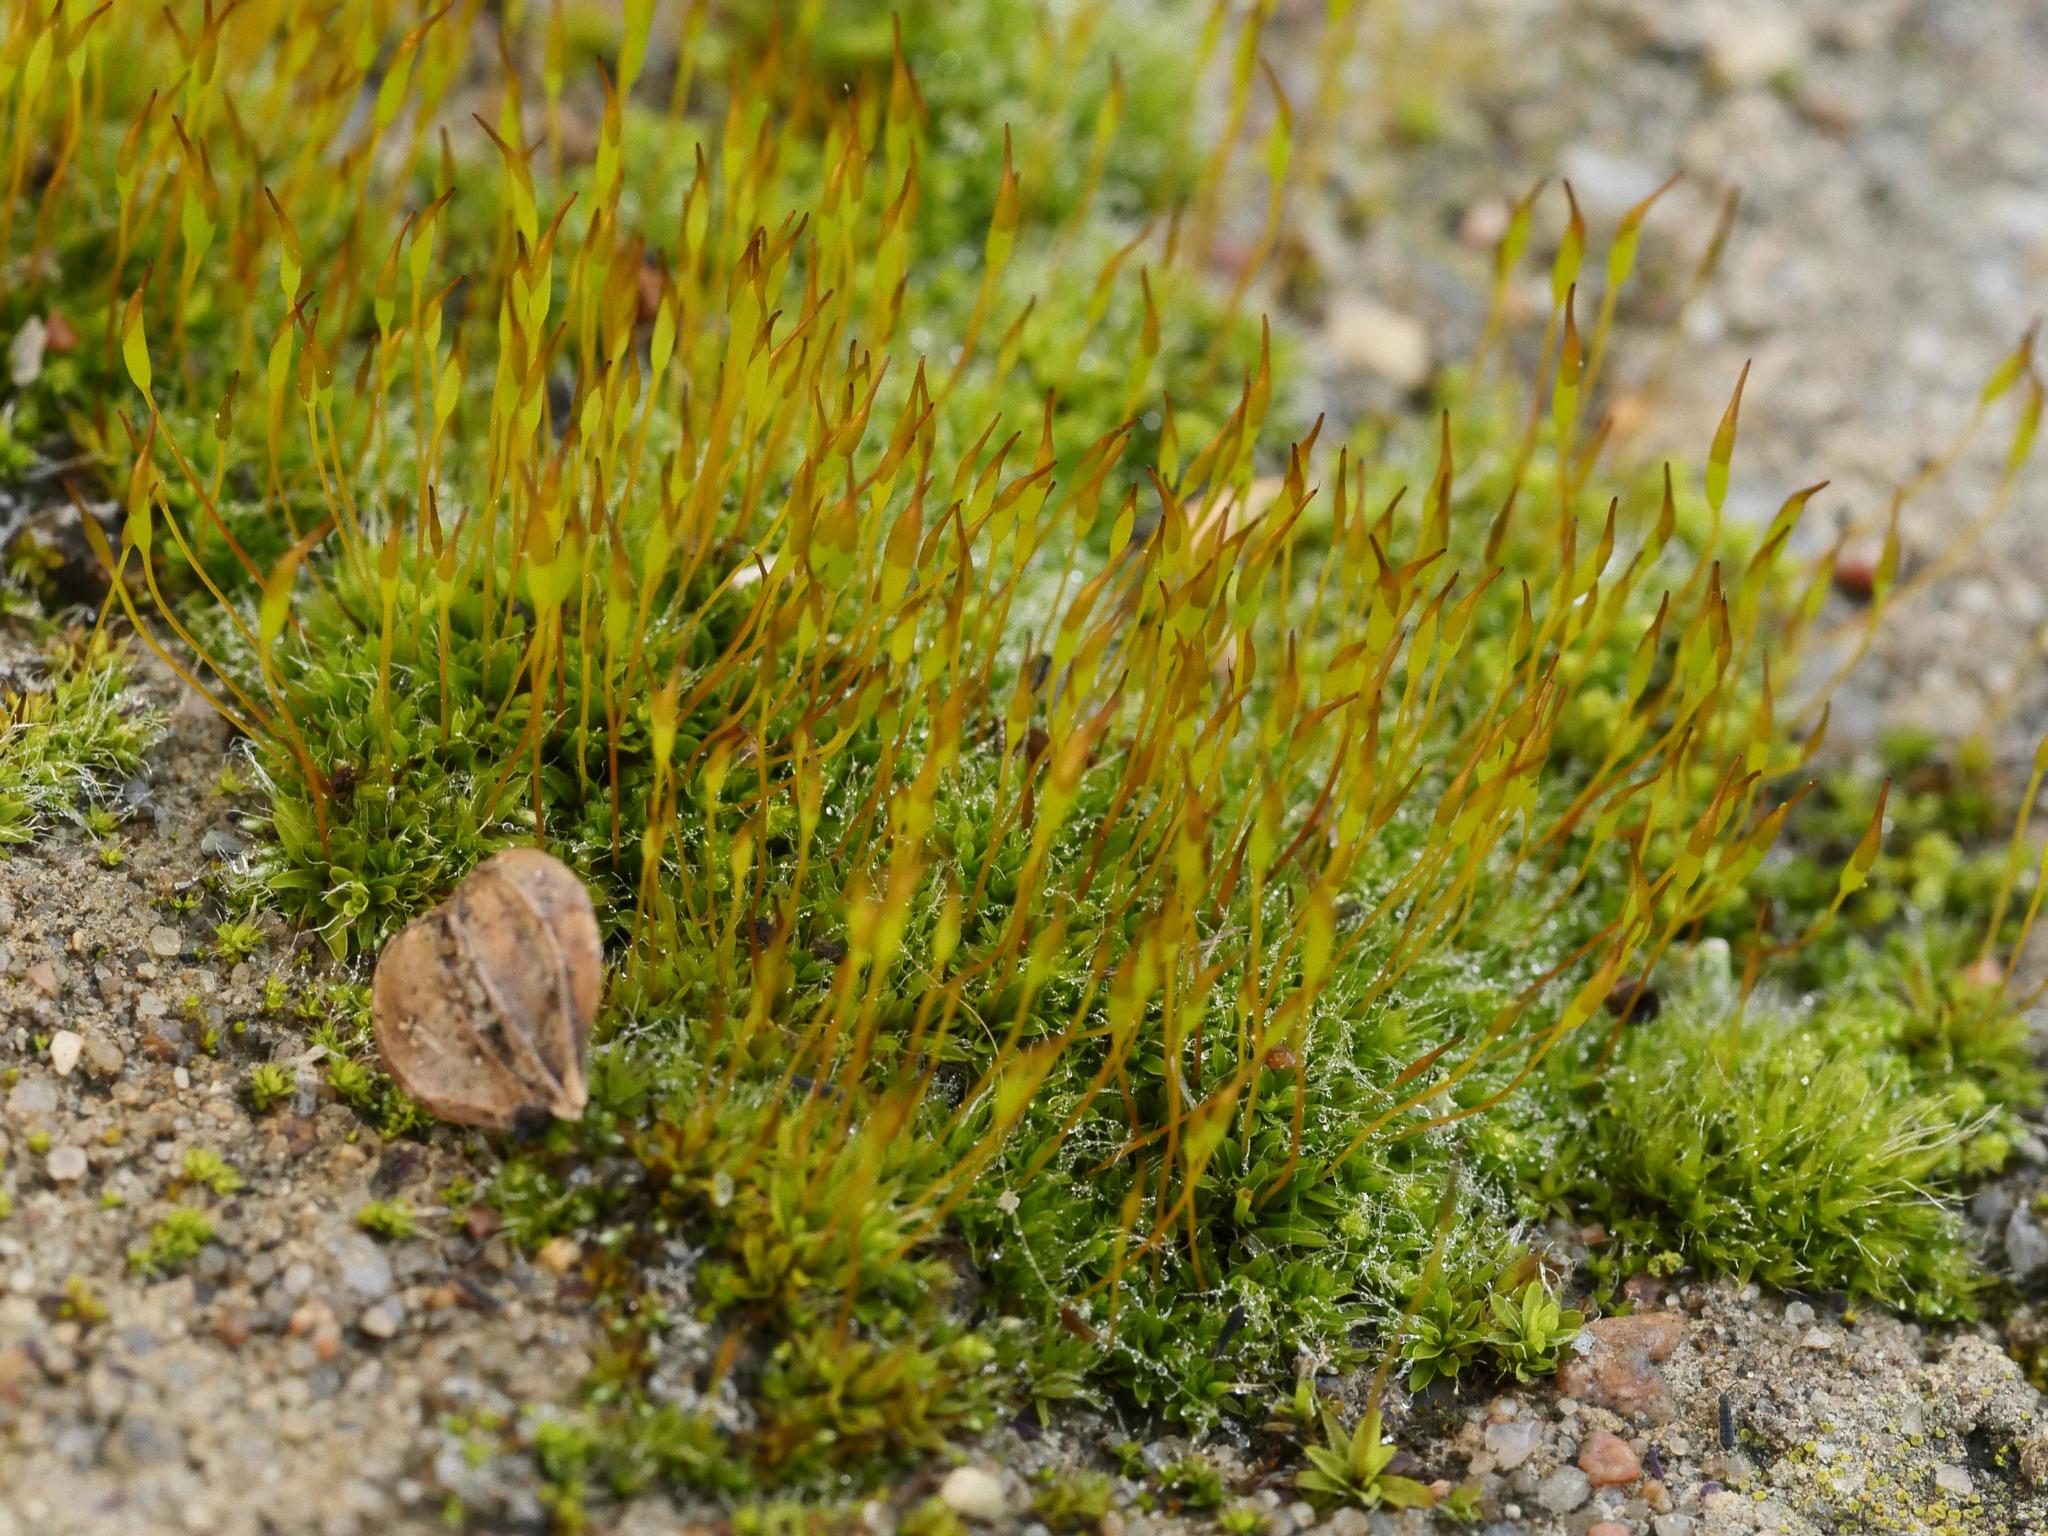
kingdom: Plantae
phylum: Bryophyta
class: Bryopsida
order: Pottiales
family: Pottiaceae
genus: Tortula
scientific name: Tortula muralis
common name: Wall screw-moss
